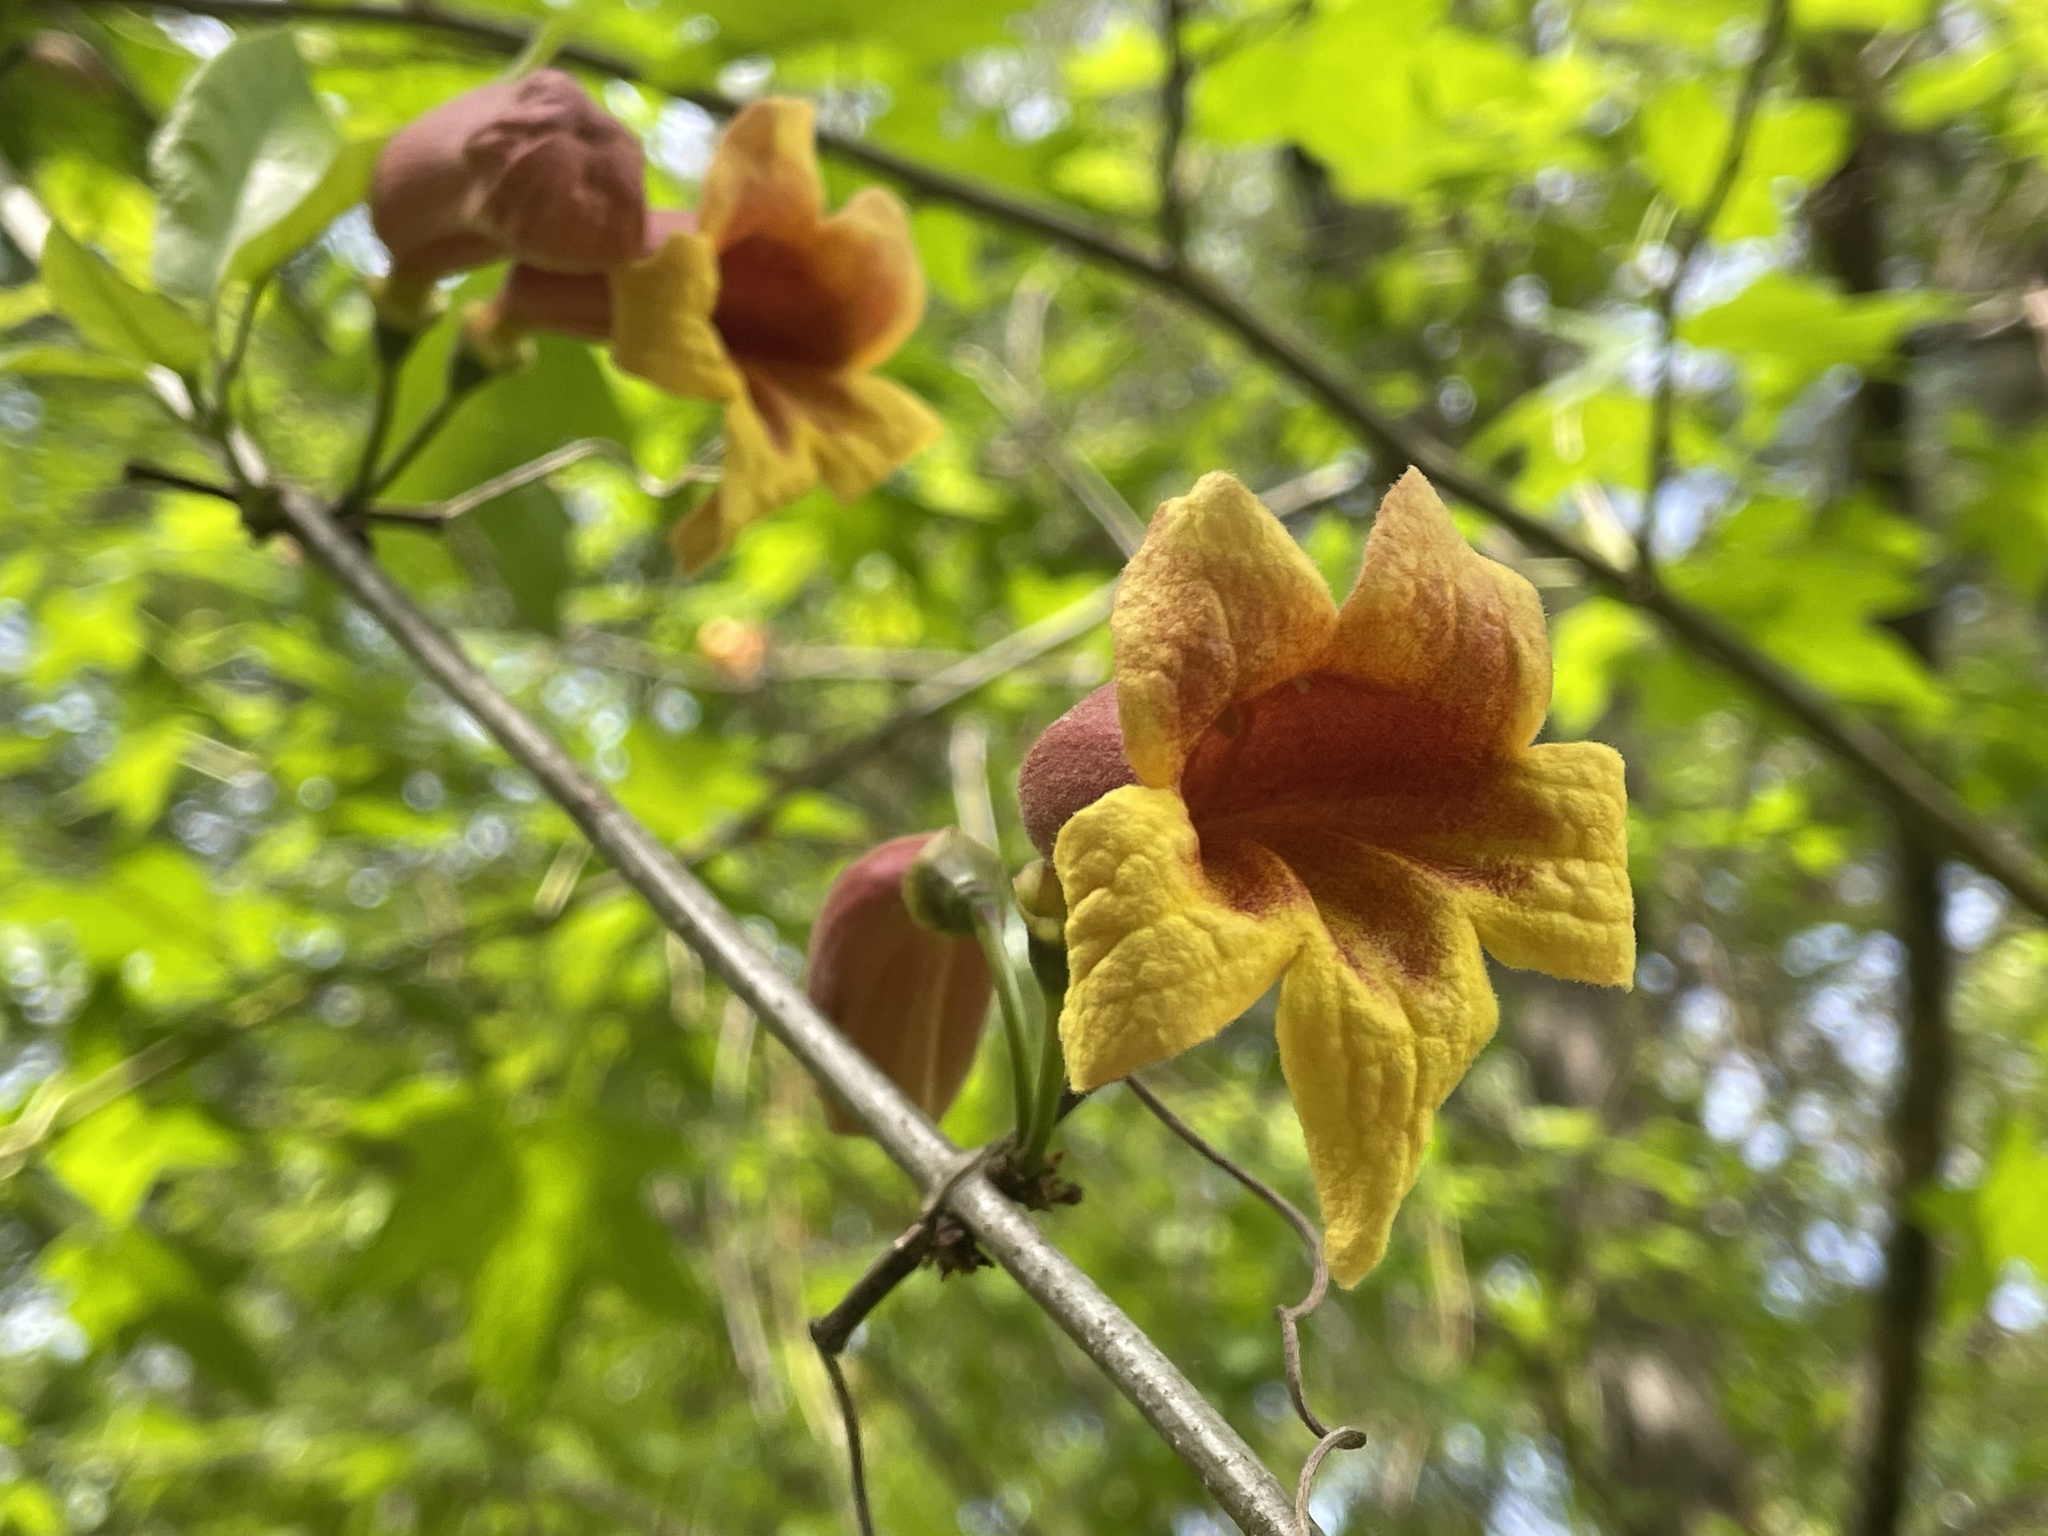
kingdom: Plantae
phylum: Tracheophyta
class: Magnoliopsida
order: Lamiales
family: Bignoniaceae
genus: Bignonia
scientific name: Bignonia capreolata
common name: Crossvine
